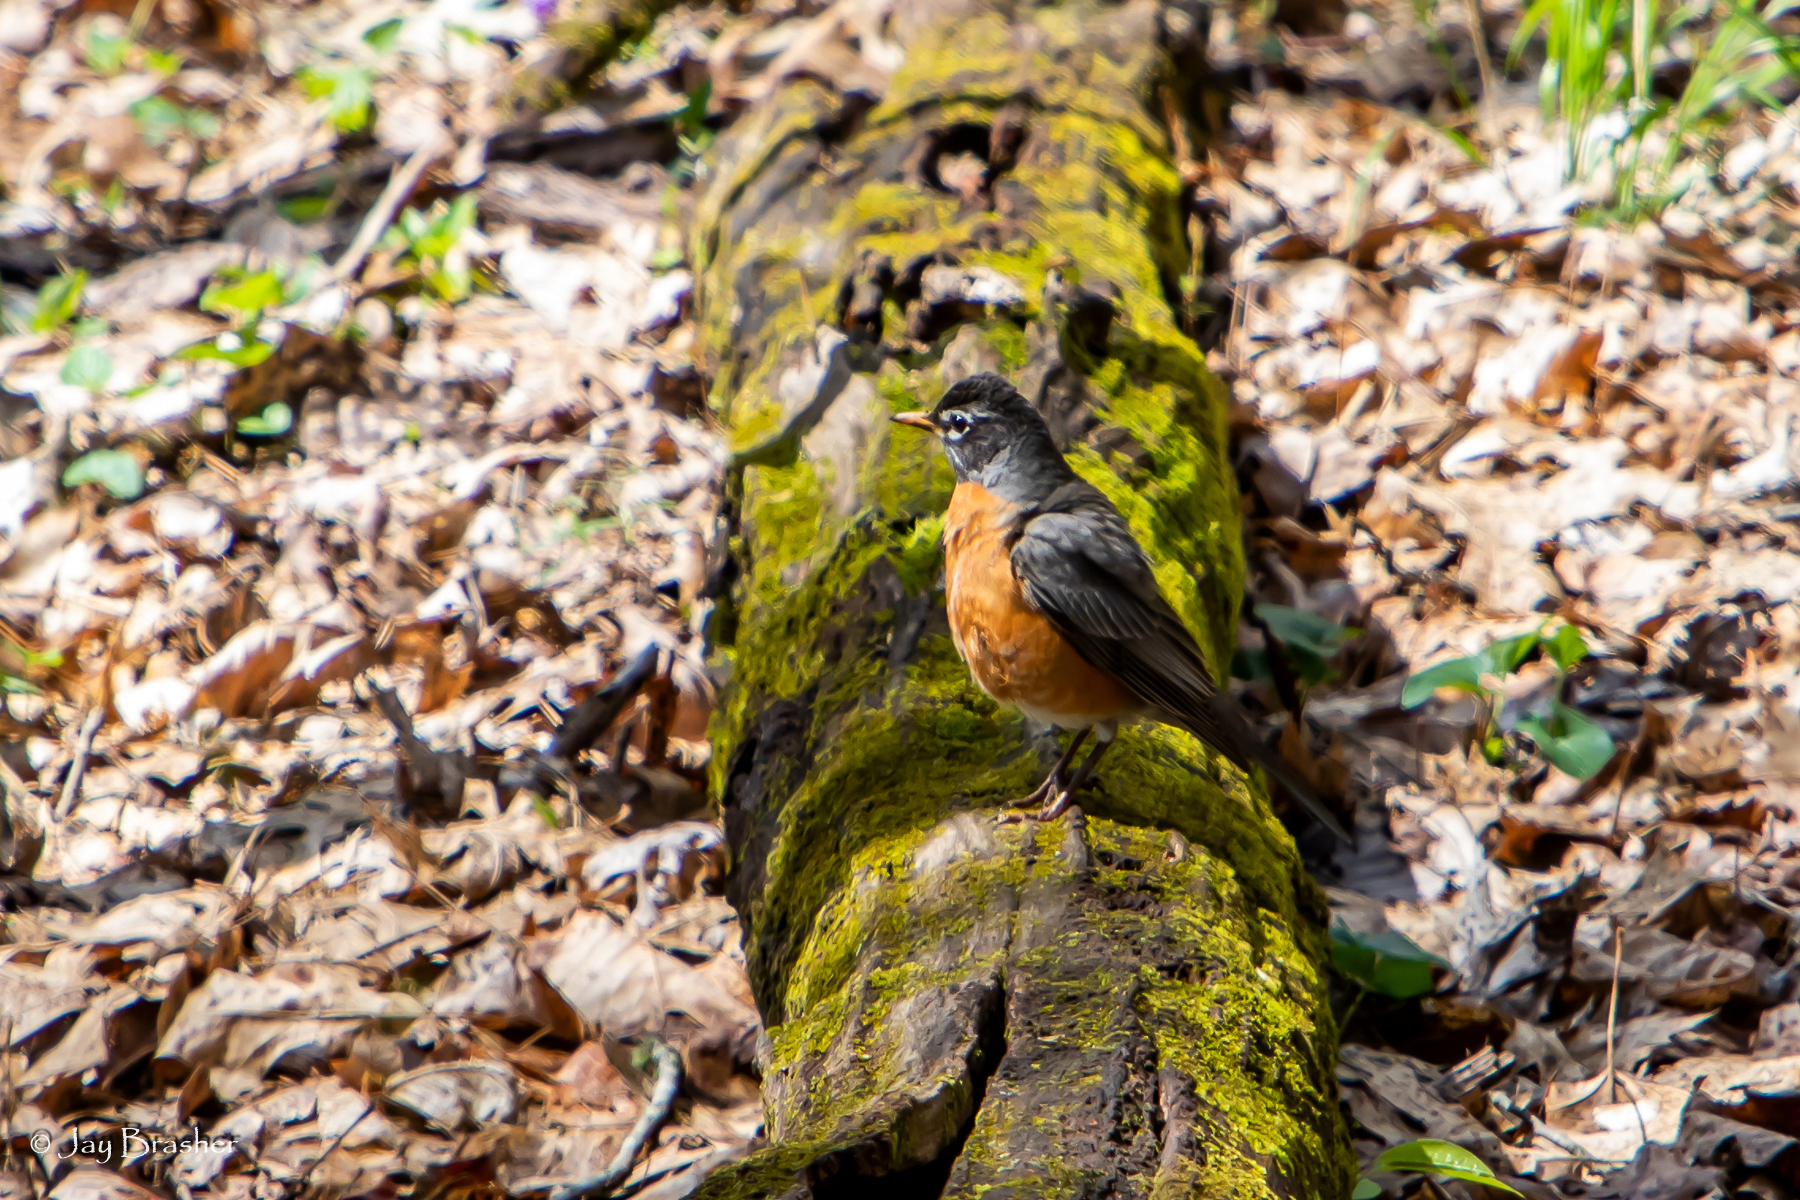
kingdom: Animalia
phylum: Chordata
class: Aves
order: Passeriformes
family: Turdidae
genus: Turdus
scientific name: Turdus migratorius
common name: American robin
